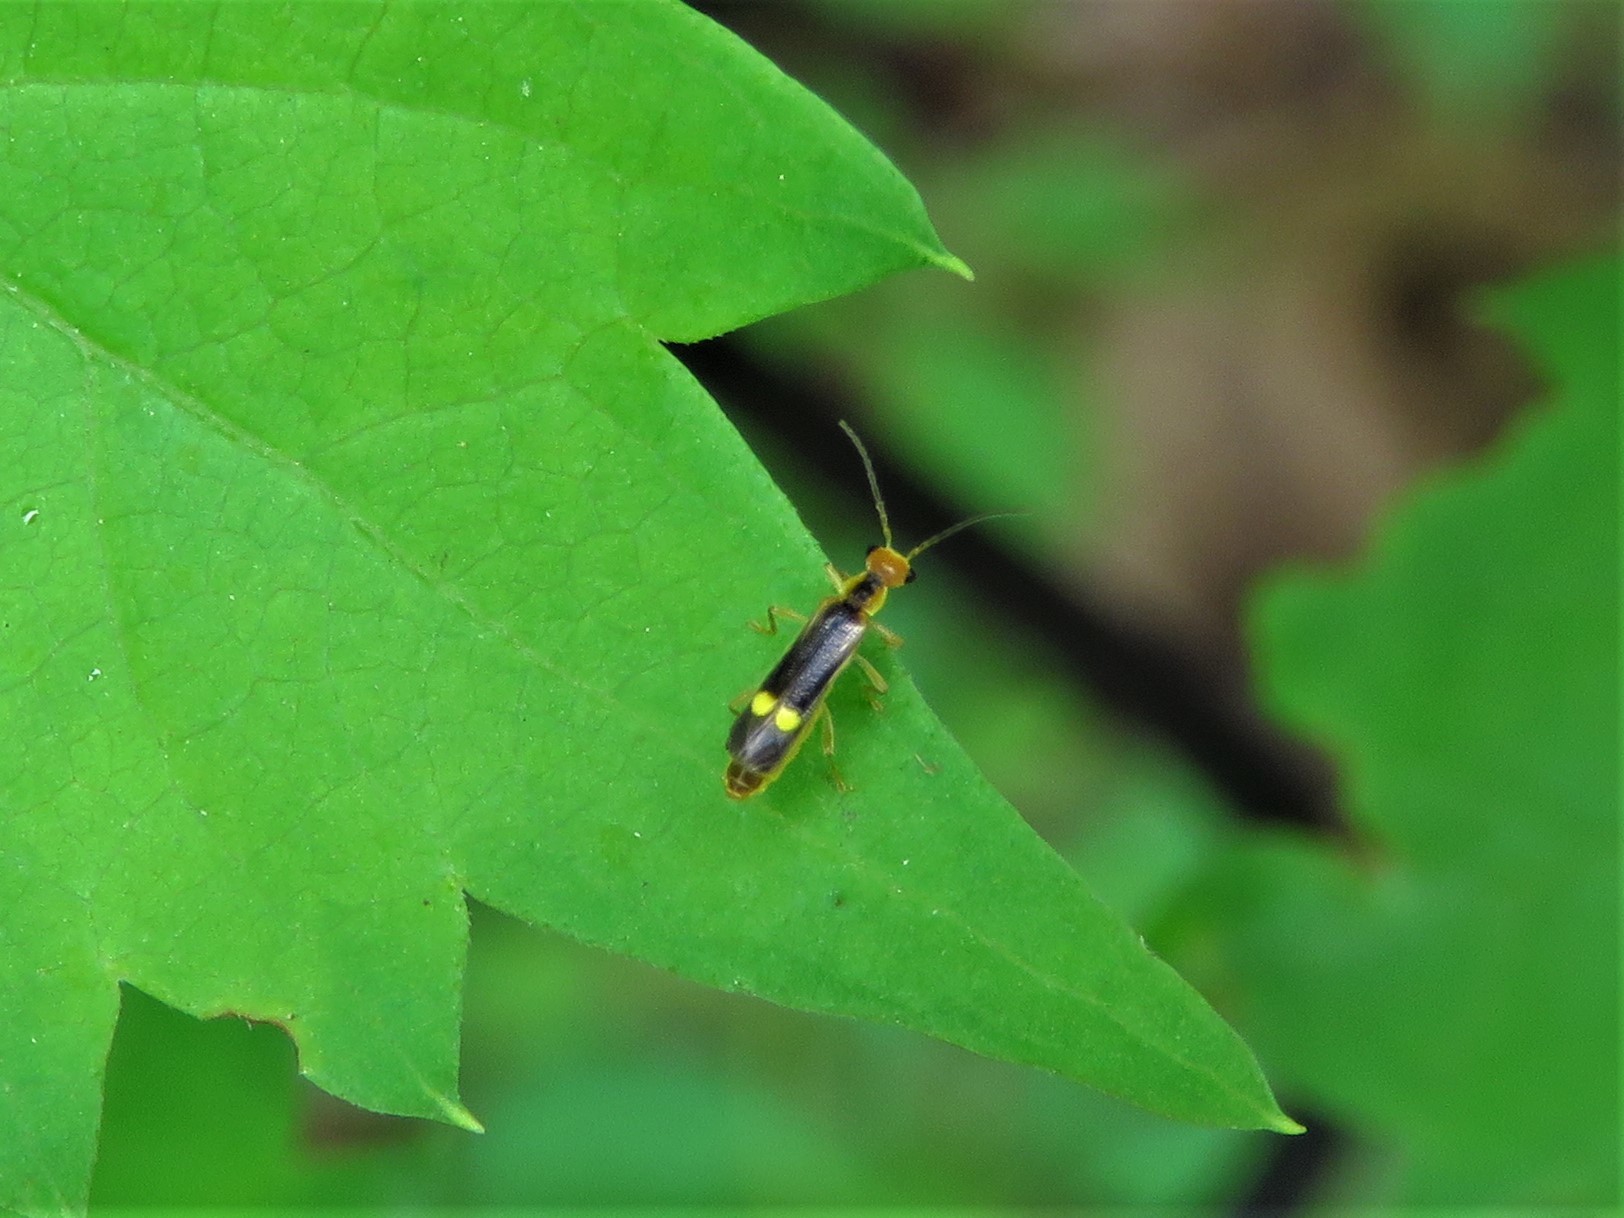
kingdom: Animalia
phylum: Arthropoda
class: Insecta
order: Coleoptera
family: Cantharidae
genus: Malthinus
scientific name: Malthinus occipitalis
